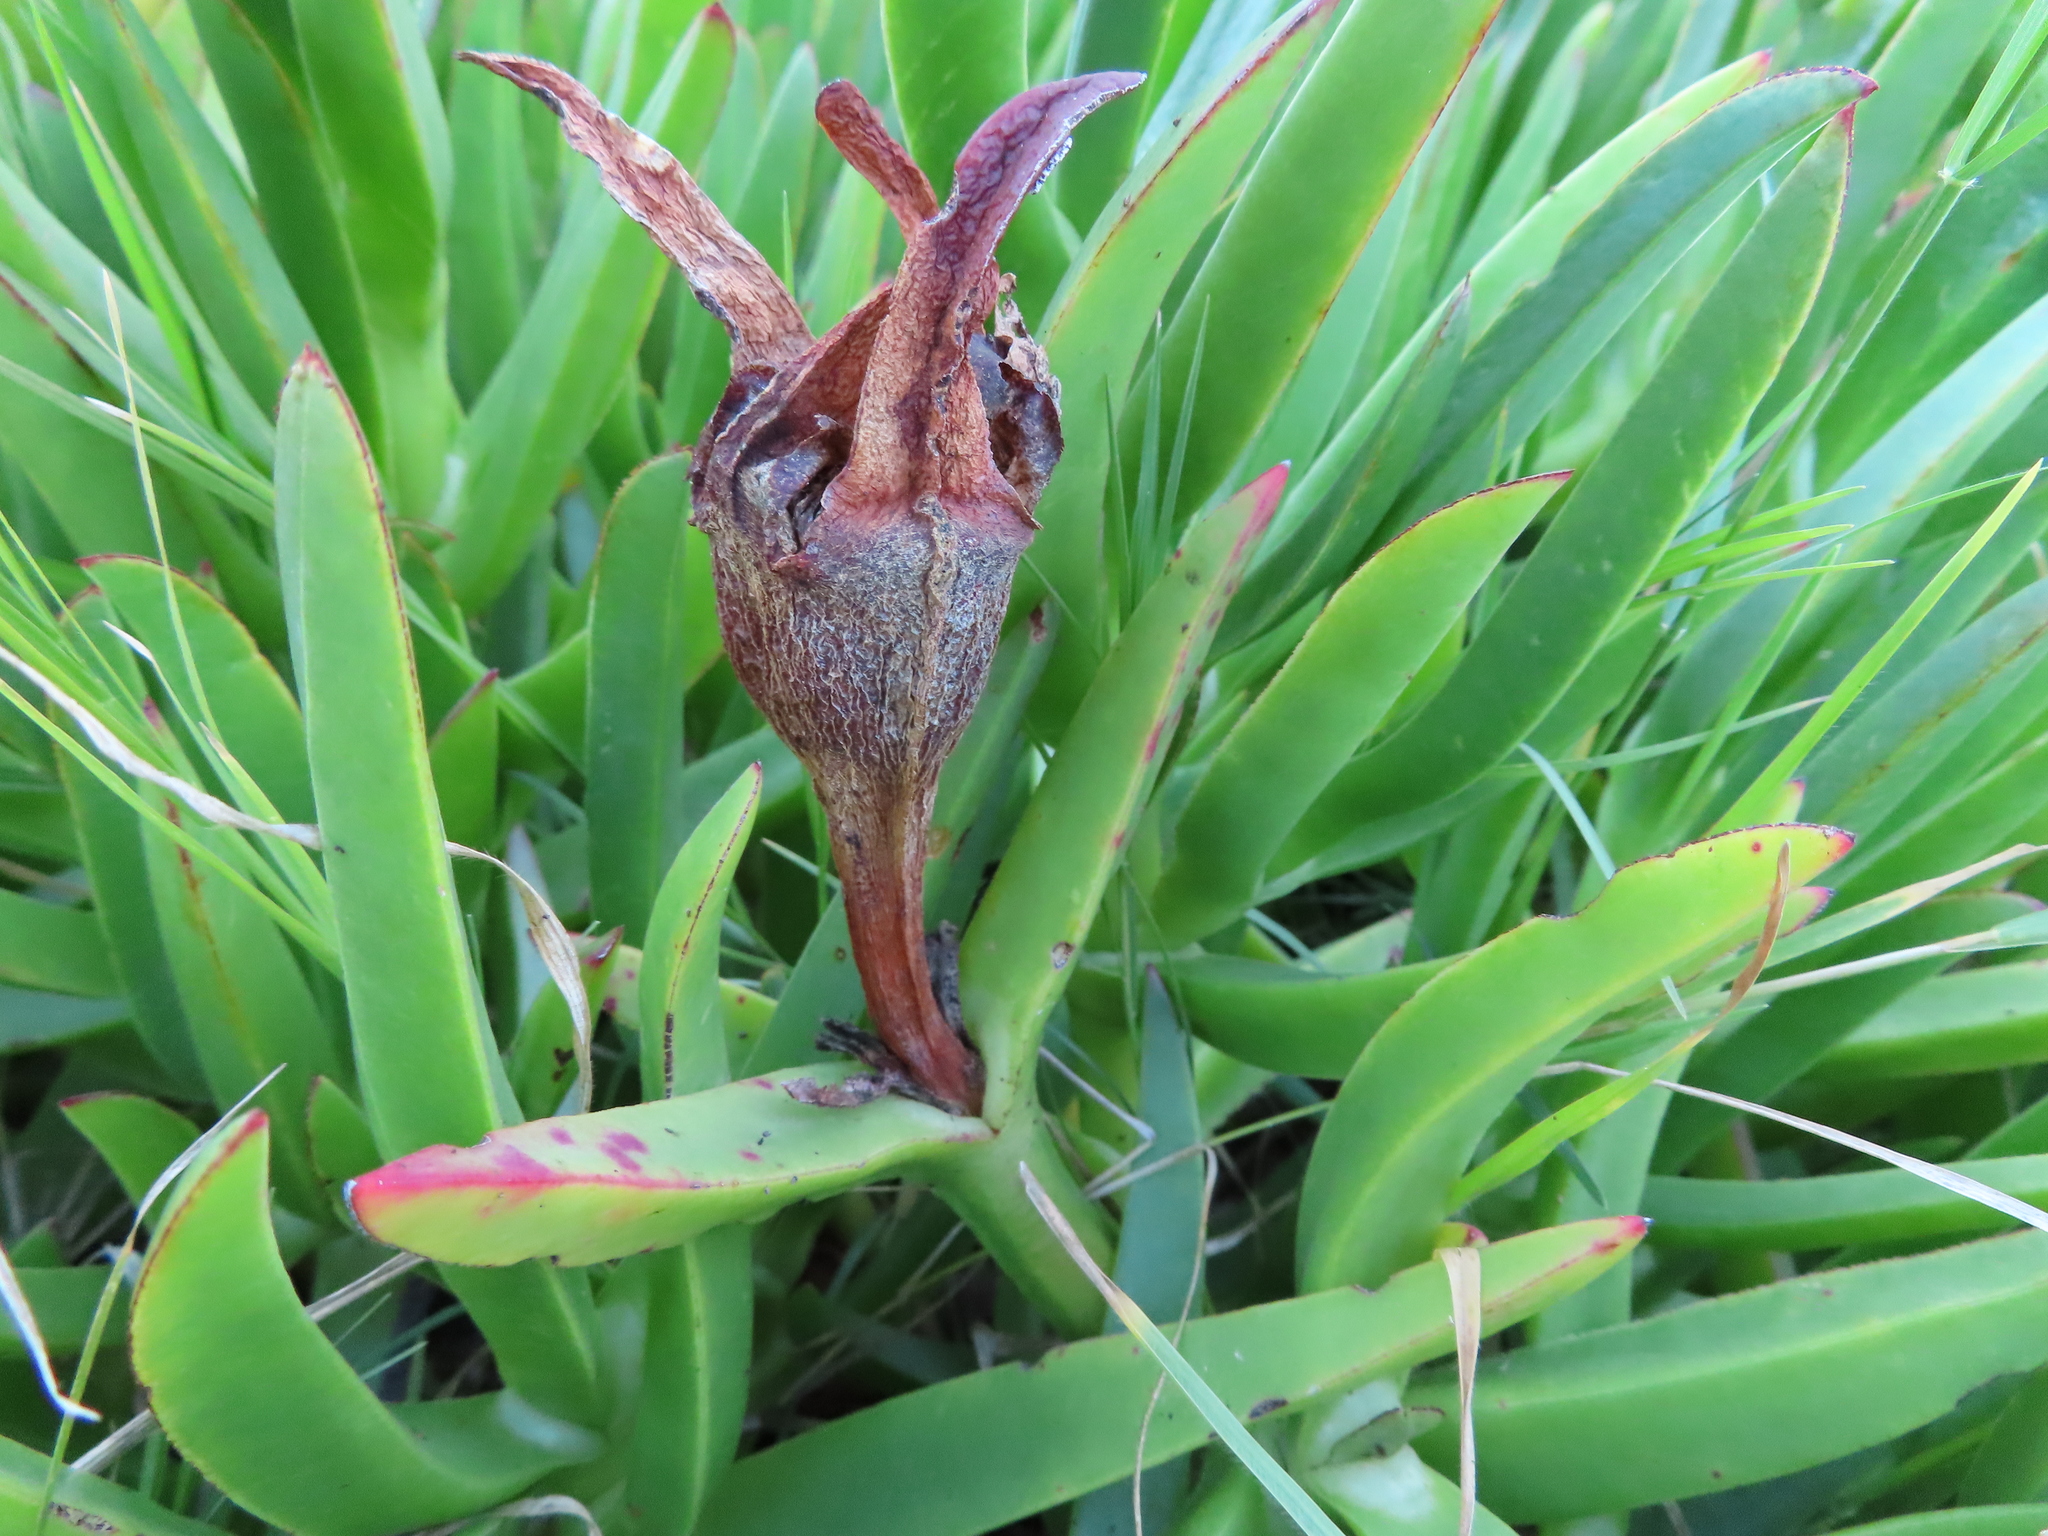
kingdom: Plantae
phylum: Tracheophyta
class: Magnoliopsida
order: Caryophyllales
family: Aizoaceae
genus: Carpobrotus
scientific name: Carpobrotus edulis
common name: Hottentot-fig
